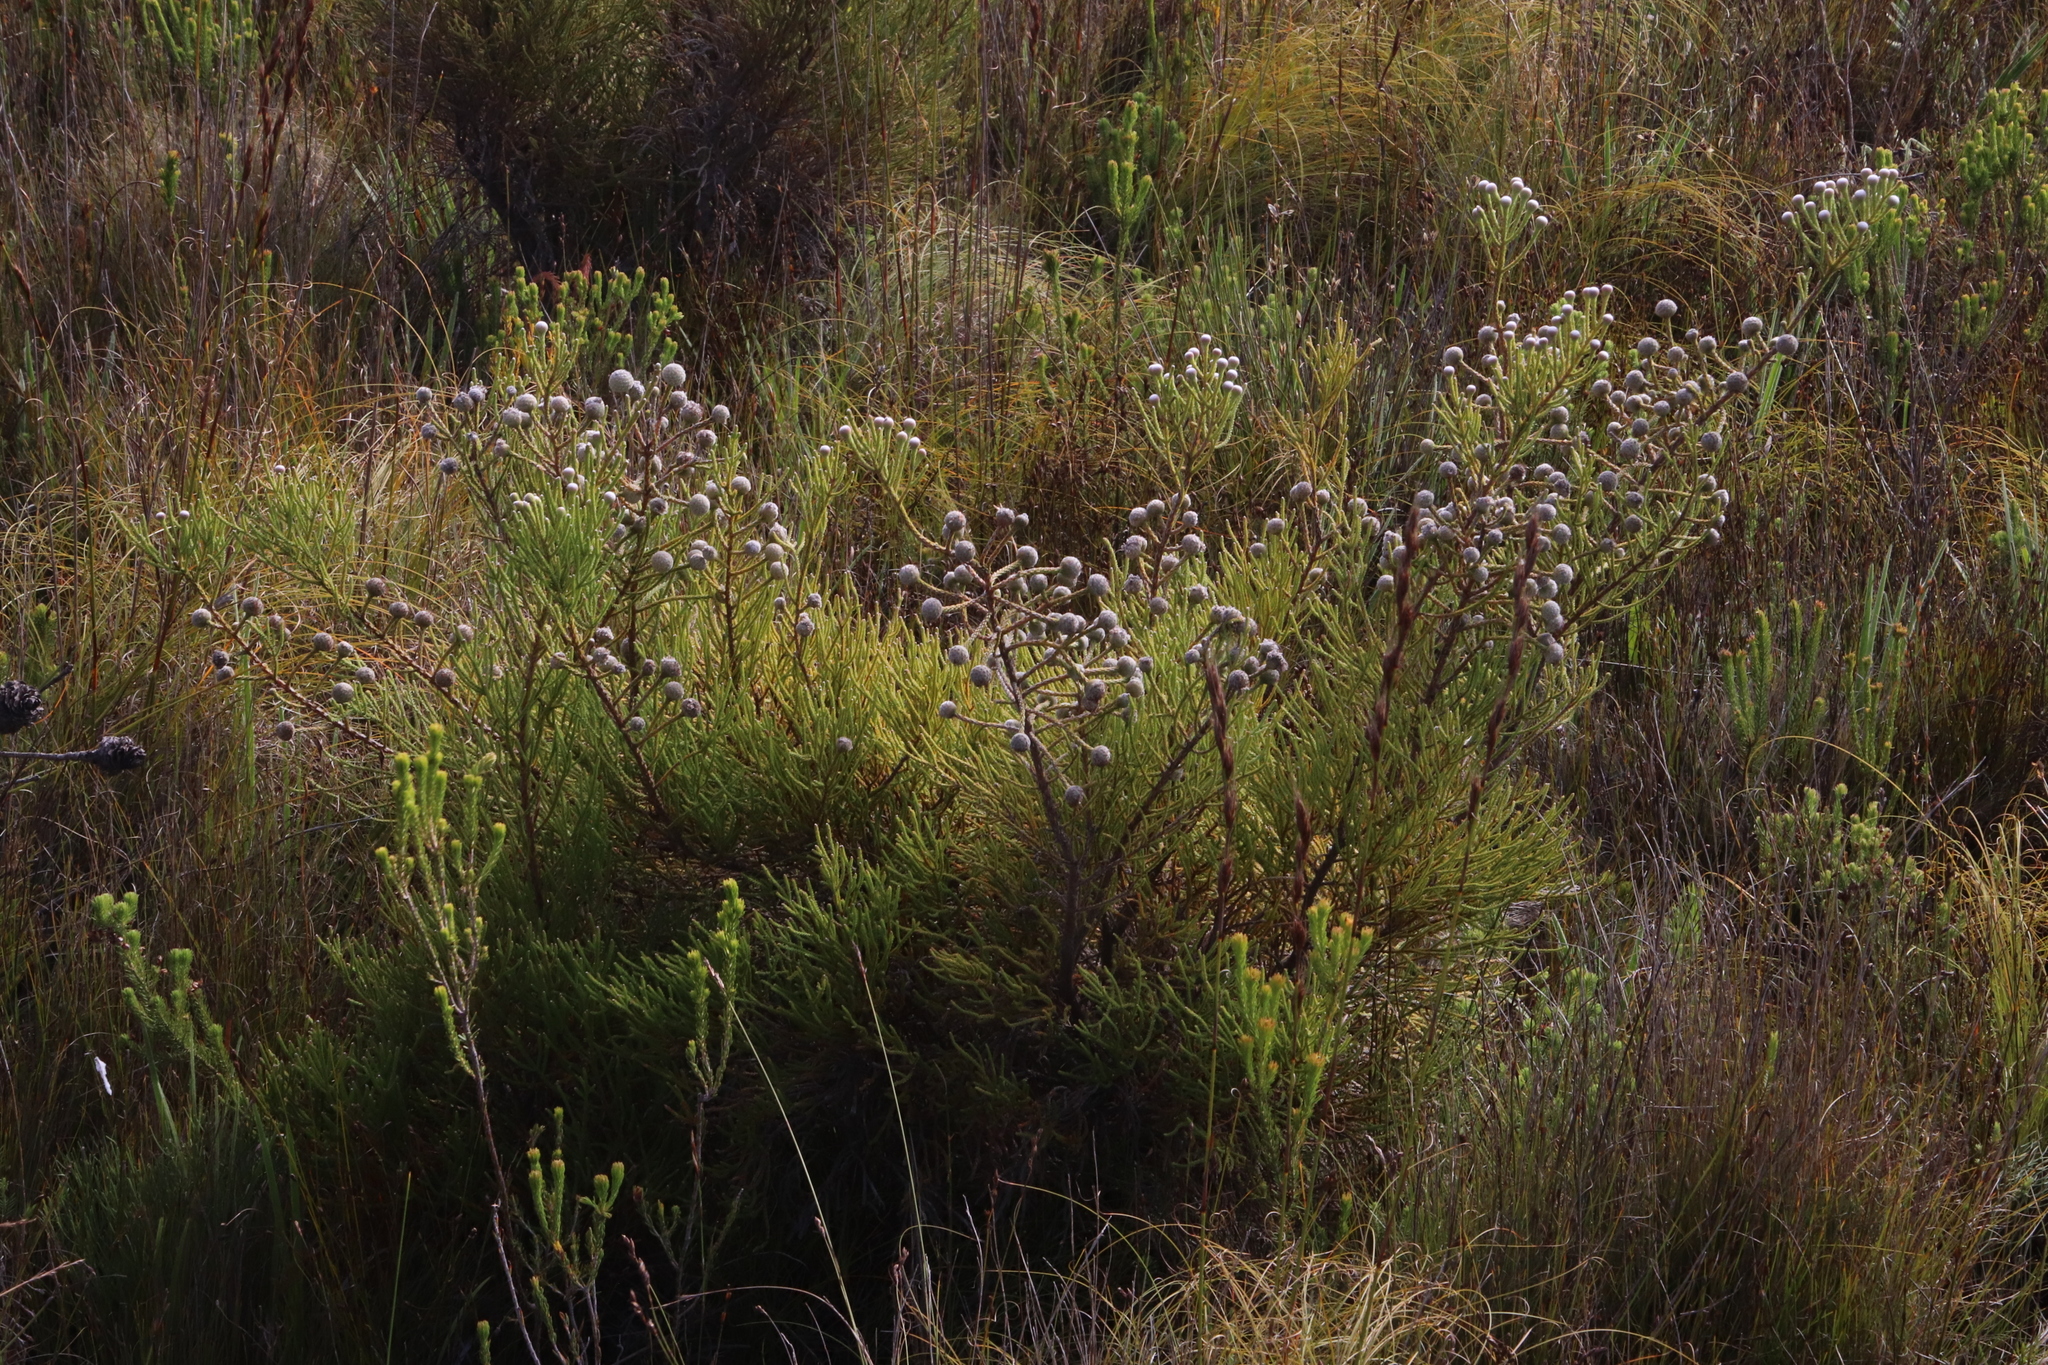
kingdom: Plantae
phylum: Tracheophyta
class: Magnoliopsida
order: Bruniales
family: Bruniaceae
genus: Brunia
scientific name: Brunia noduliflora
